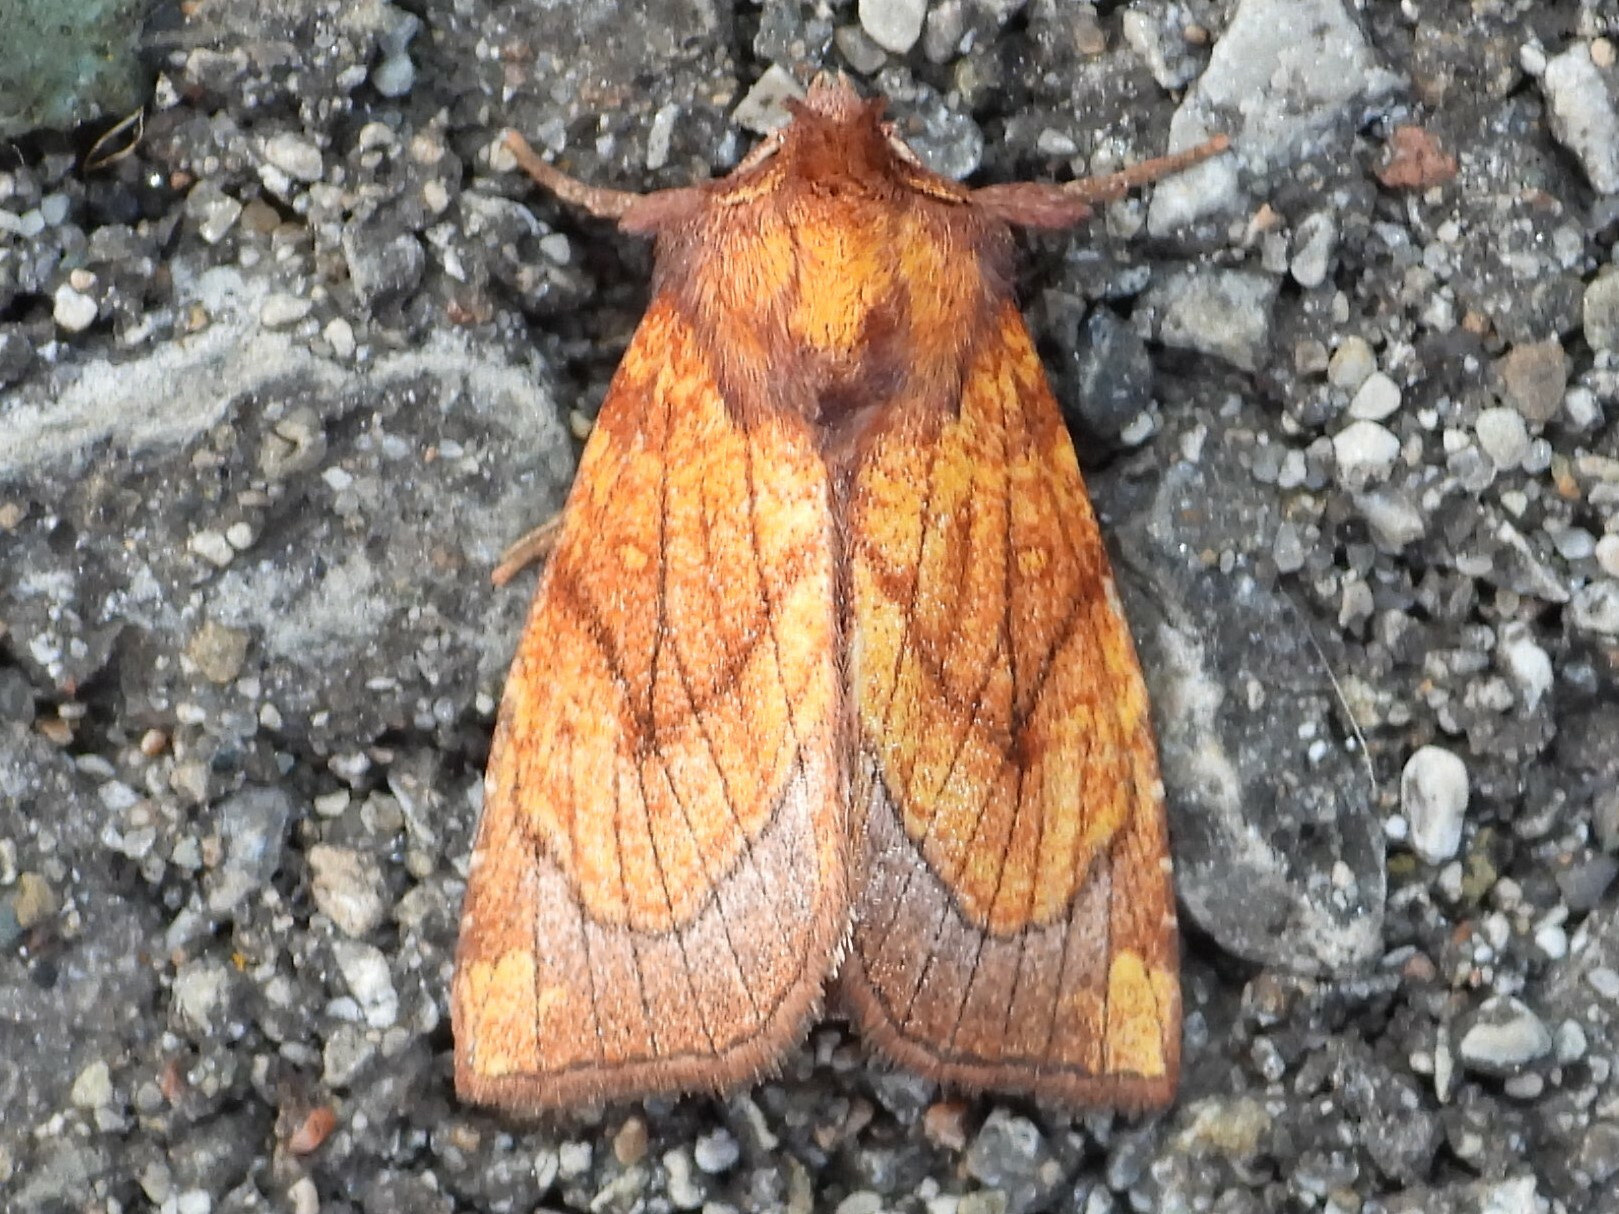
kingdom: Animalia
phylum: Arthropoda
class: Insecta
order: Lepidoptera
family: Noctuidae
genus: Papaipema
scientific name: Papaipema inquaesita
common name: Sensitive fern borer moth
